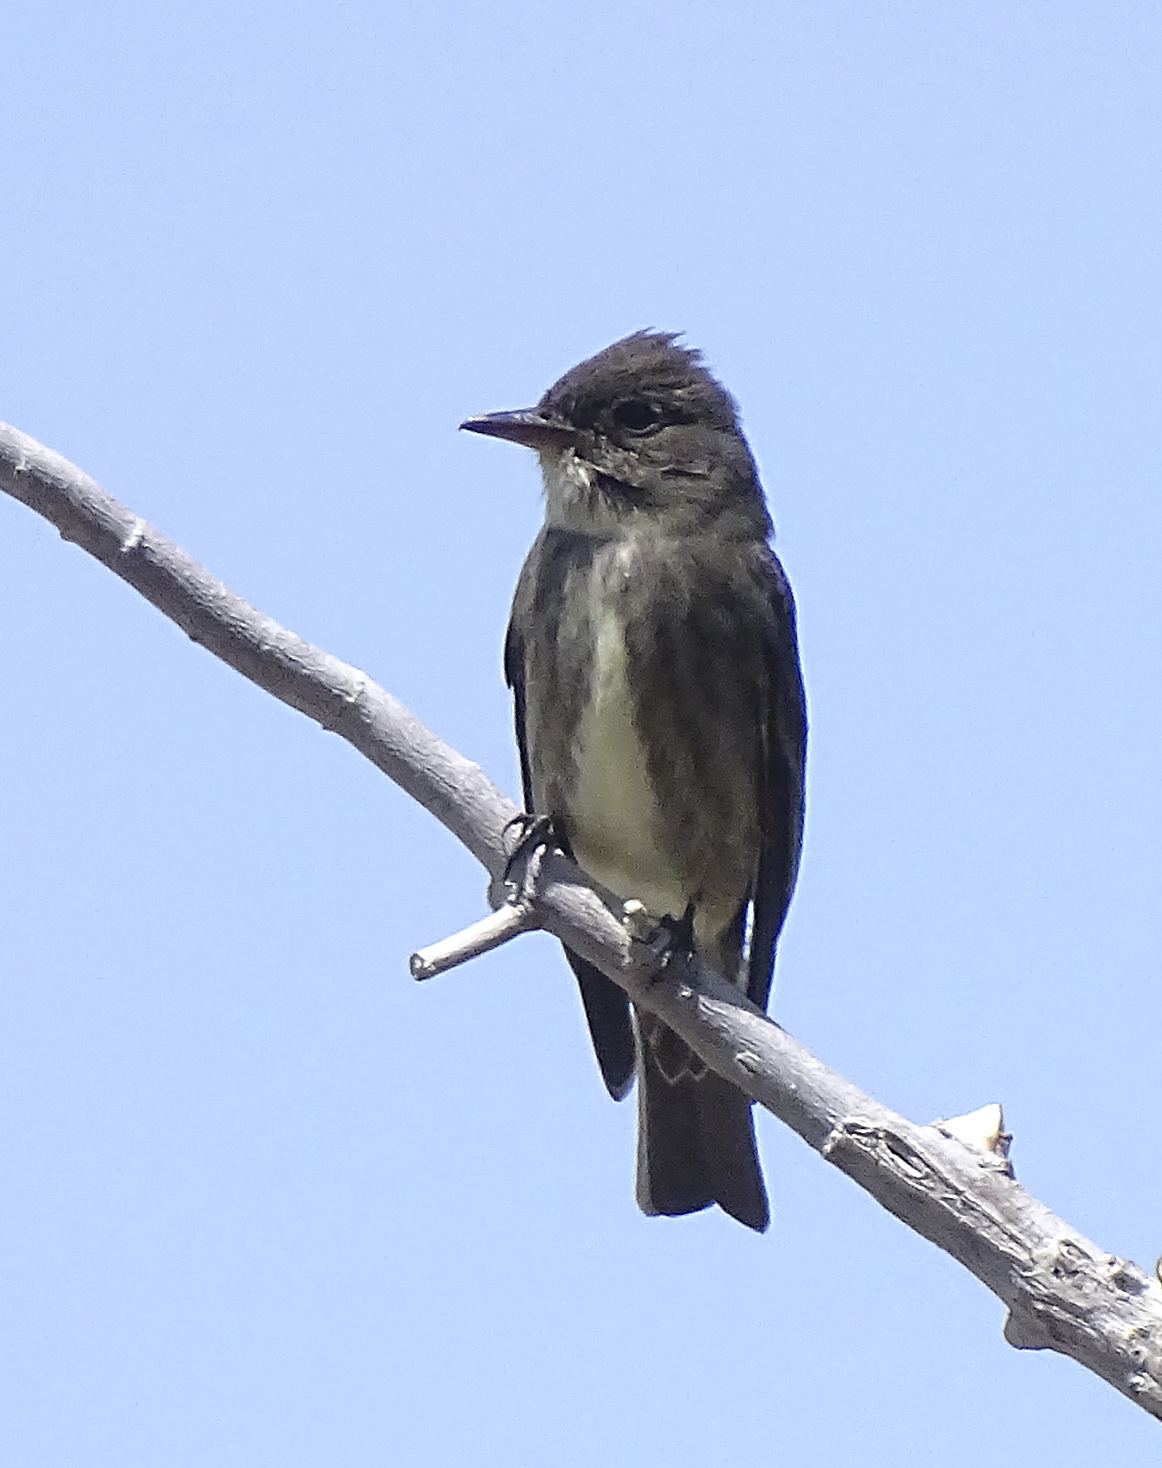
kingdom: Animalia
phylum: Chordata
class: Aves
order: Passeriformes
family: Tyrannidae
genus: Contopus
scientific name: Contopus cooperi
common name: Olive-sided flycatcher
